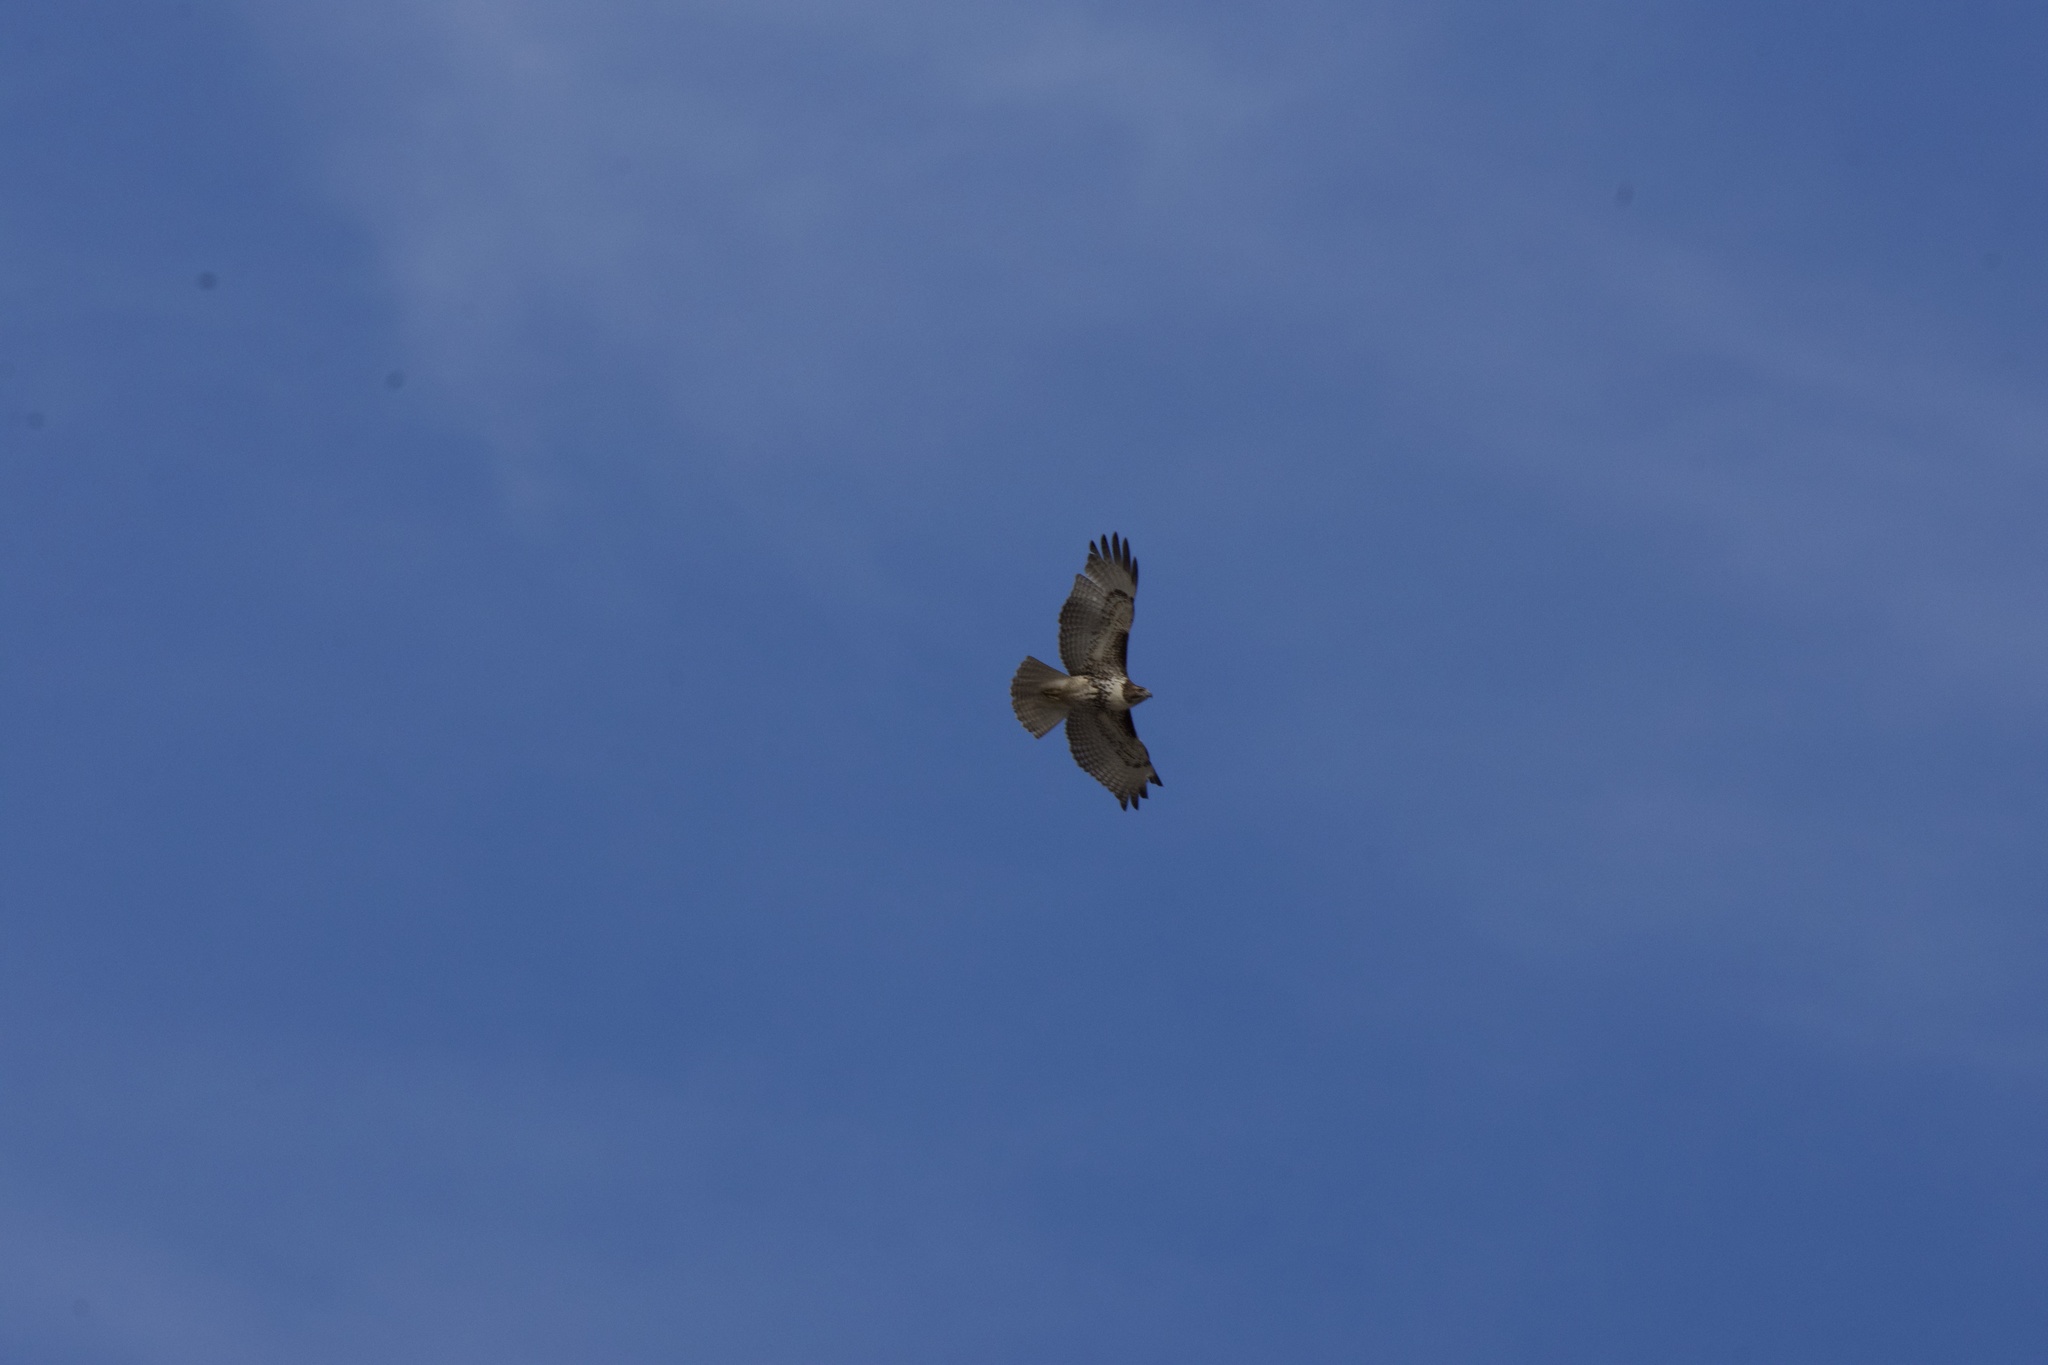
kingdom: Animalia
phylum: Chordata
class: Aves
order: Accipitriformes
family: Accipitridae
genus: Buteo
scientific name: Buteo jamaicensis
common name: Red-tailed hawk
